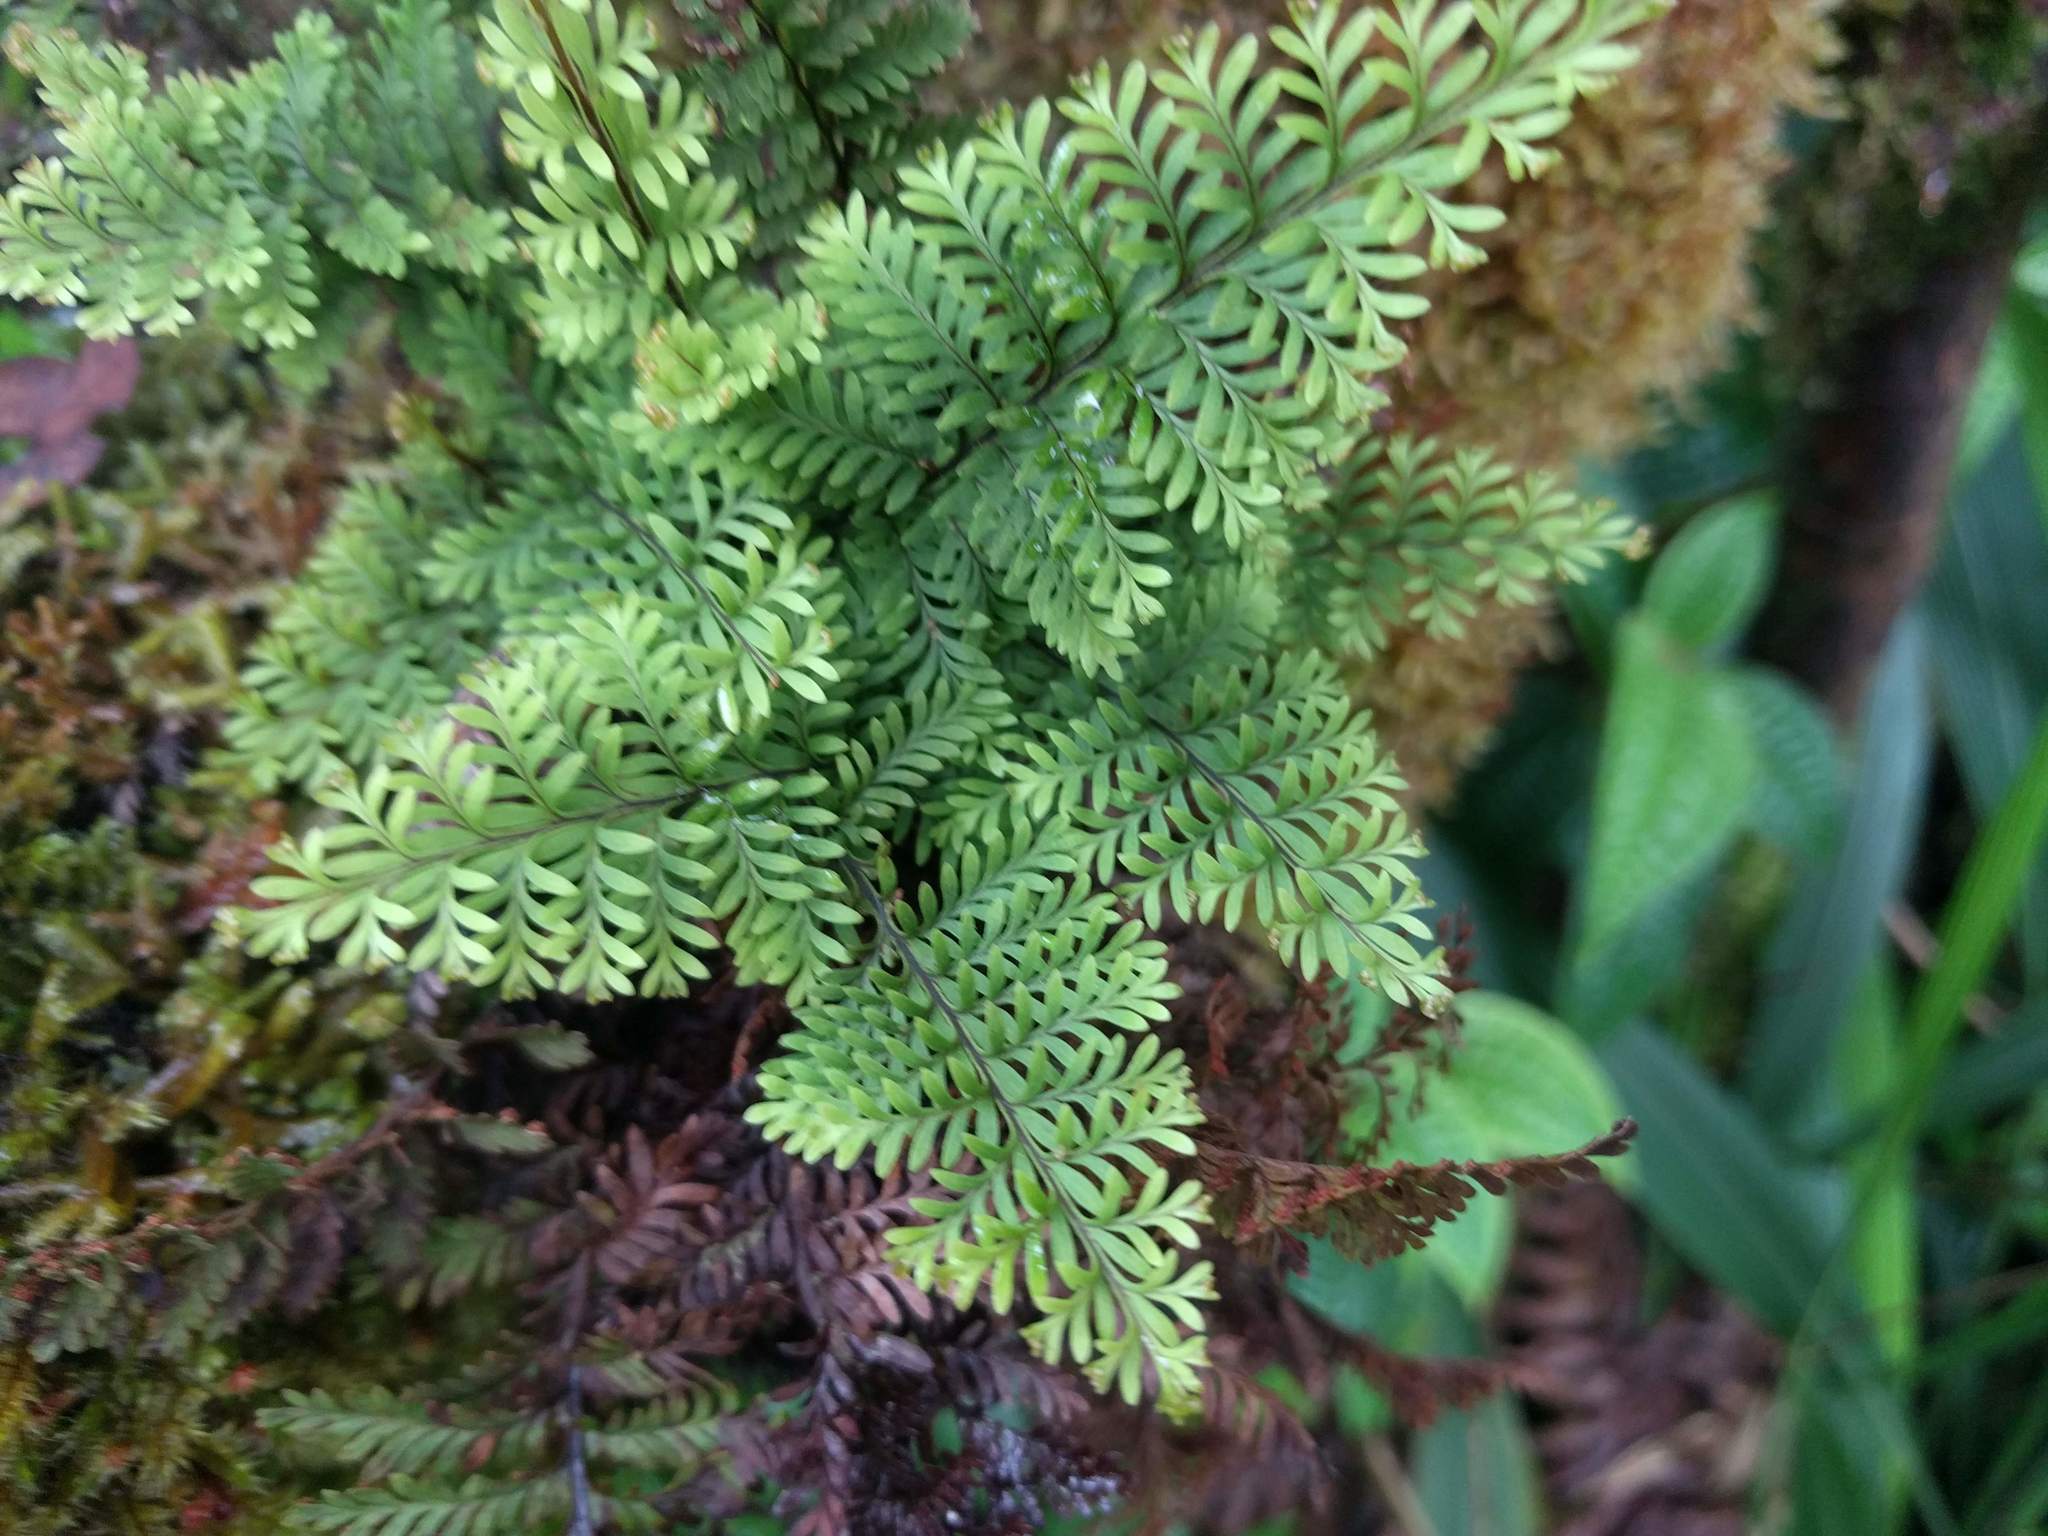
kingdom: Plantae
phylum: Tracheophyta
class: Polypodiopsida
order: Polypodiales
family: Polypodiaceae
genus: Adenophorus
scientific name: Adenophorus tamariscinus
